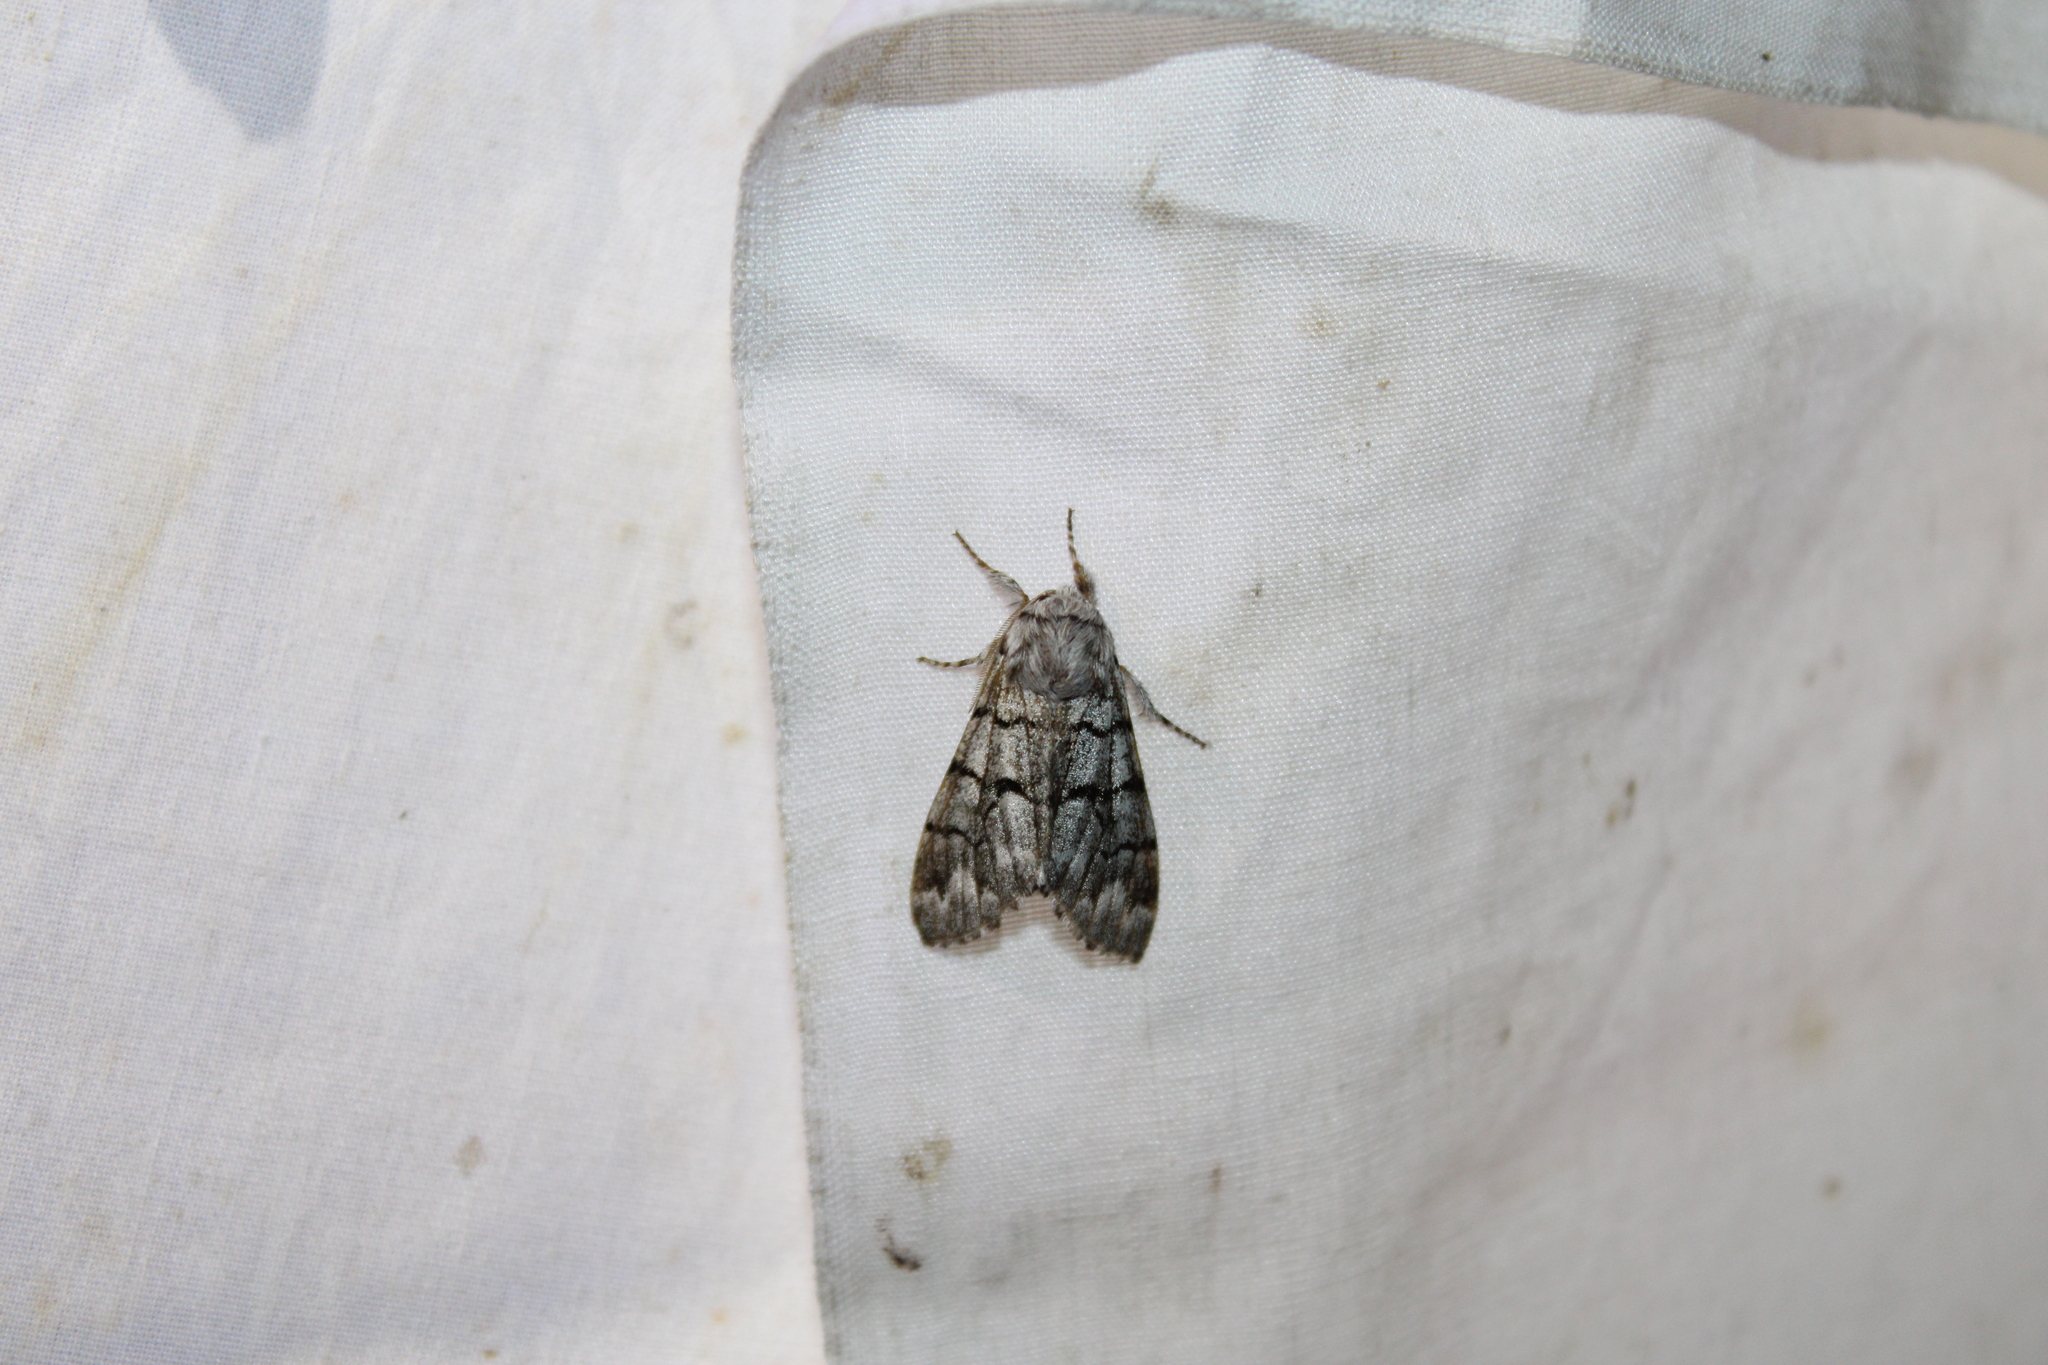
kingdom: Animalia
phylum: Arthropoda
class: Insecta
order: Lepidoptera
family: Noctuidae
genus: Panthea
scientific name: Panthea furcilla
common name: Eastern panthea moth
